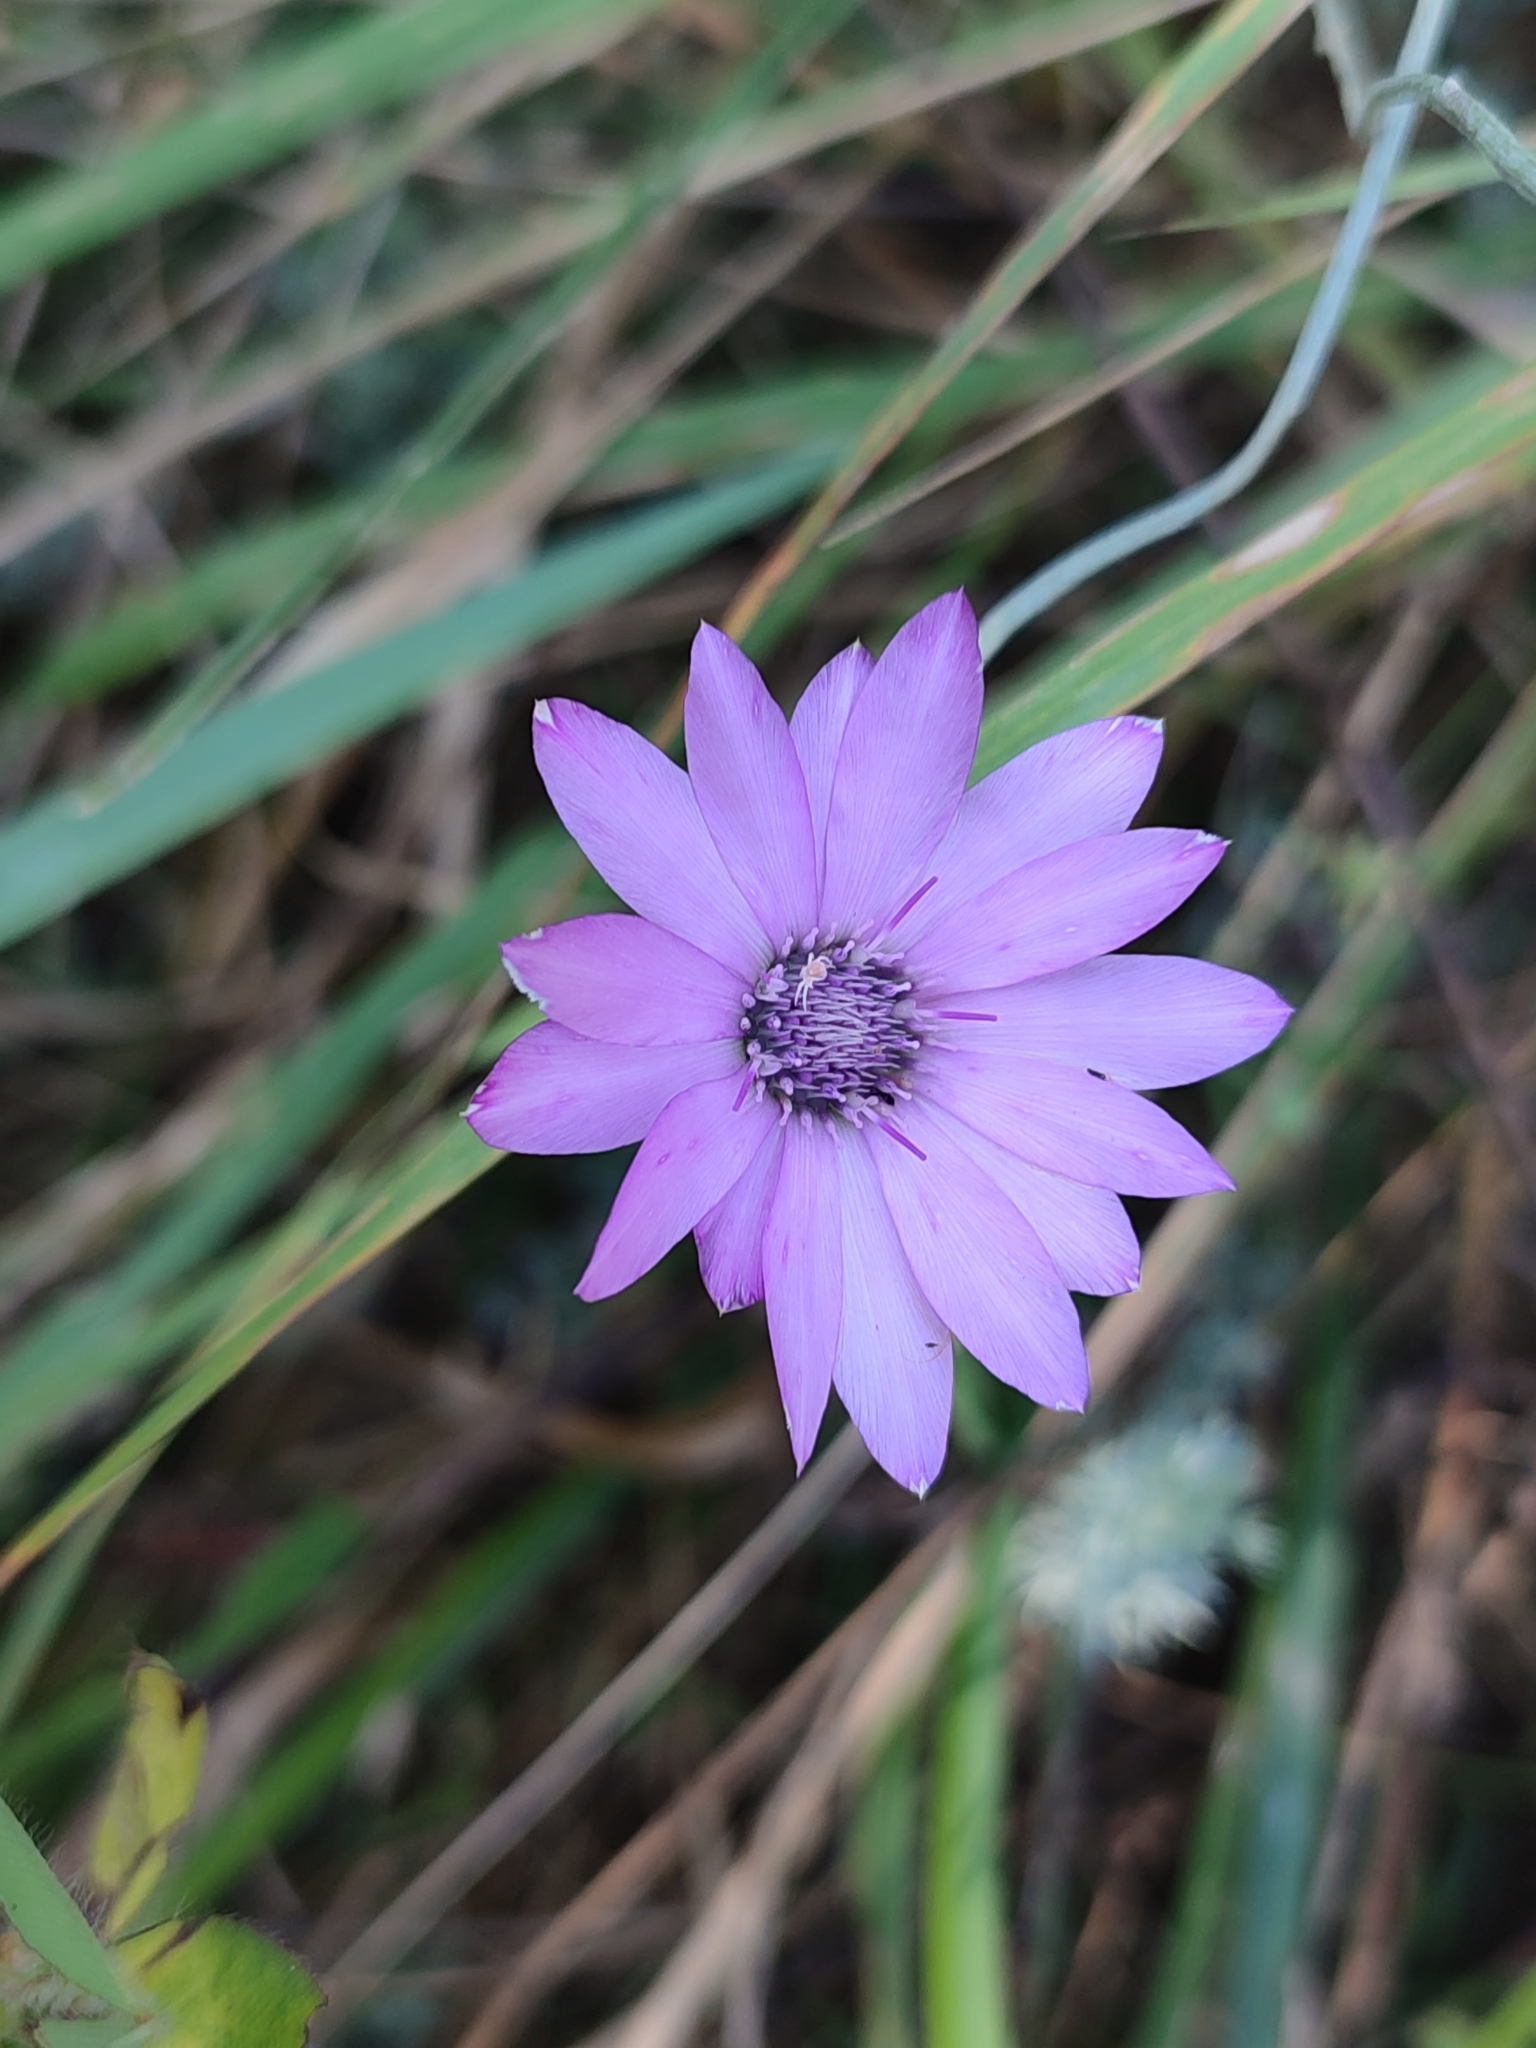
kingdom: Plantae
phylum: Tracheophyta
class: Magnoliopsida
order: Asterales
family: Asteraceae
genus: Xeranthemum
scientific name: Xeranthemum annuum
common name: Immortelle
